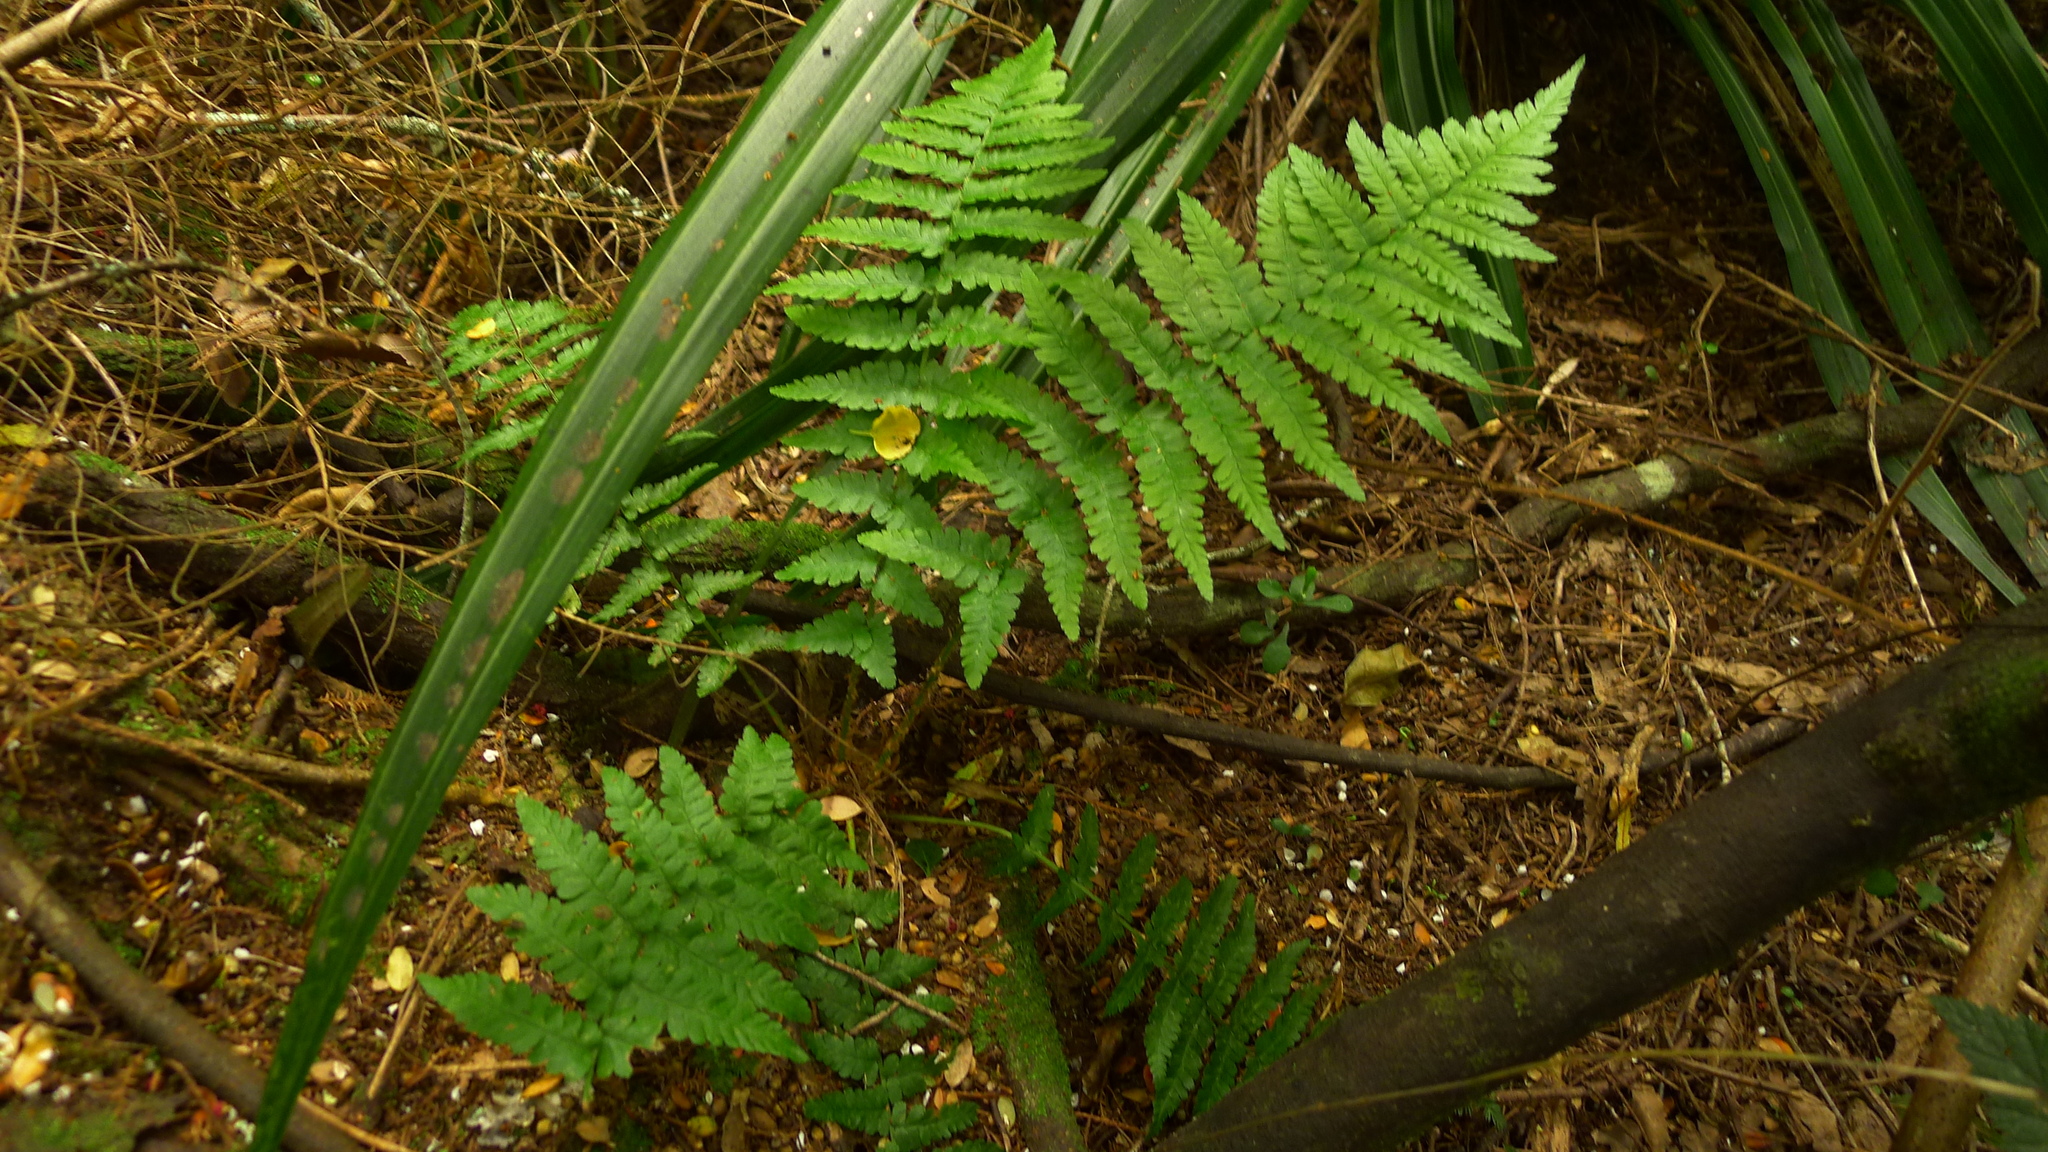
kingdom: Plantae
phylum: Tracheophyta
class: Polypodiopsida
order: Polypodiales
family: Dryopteridaceae
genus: Dryopteris
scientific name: Dryopteris filix-mas
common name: Male fern
